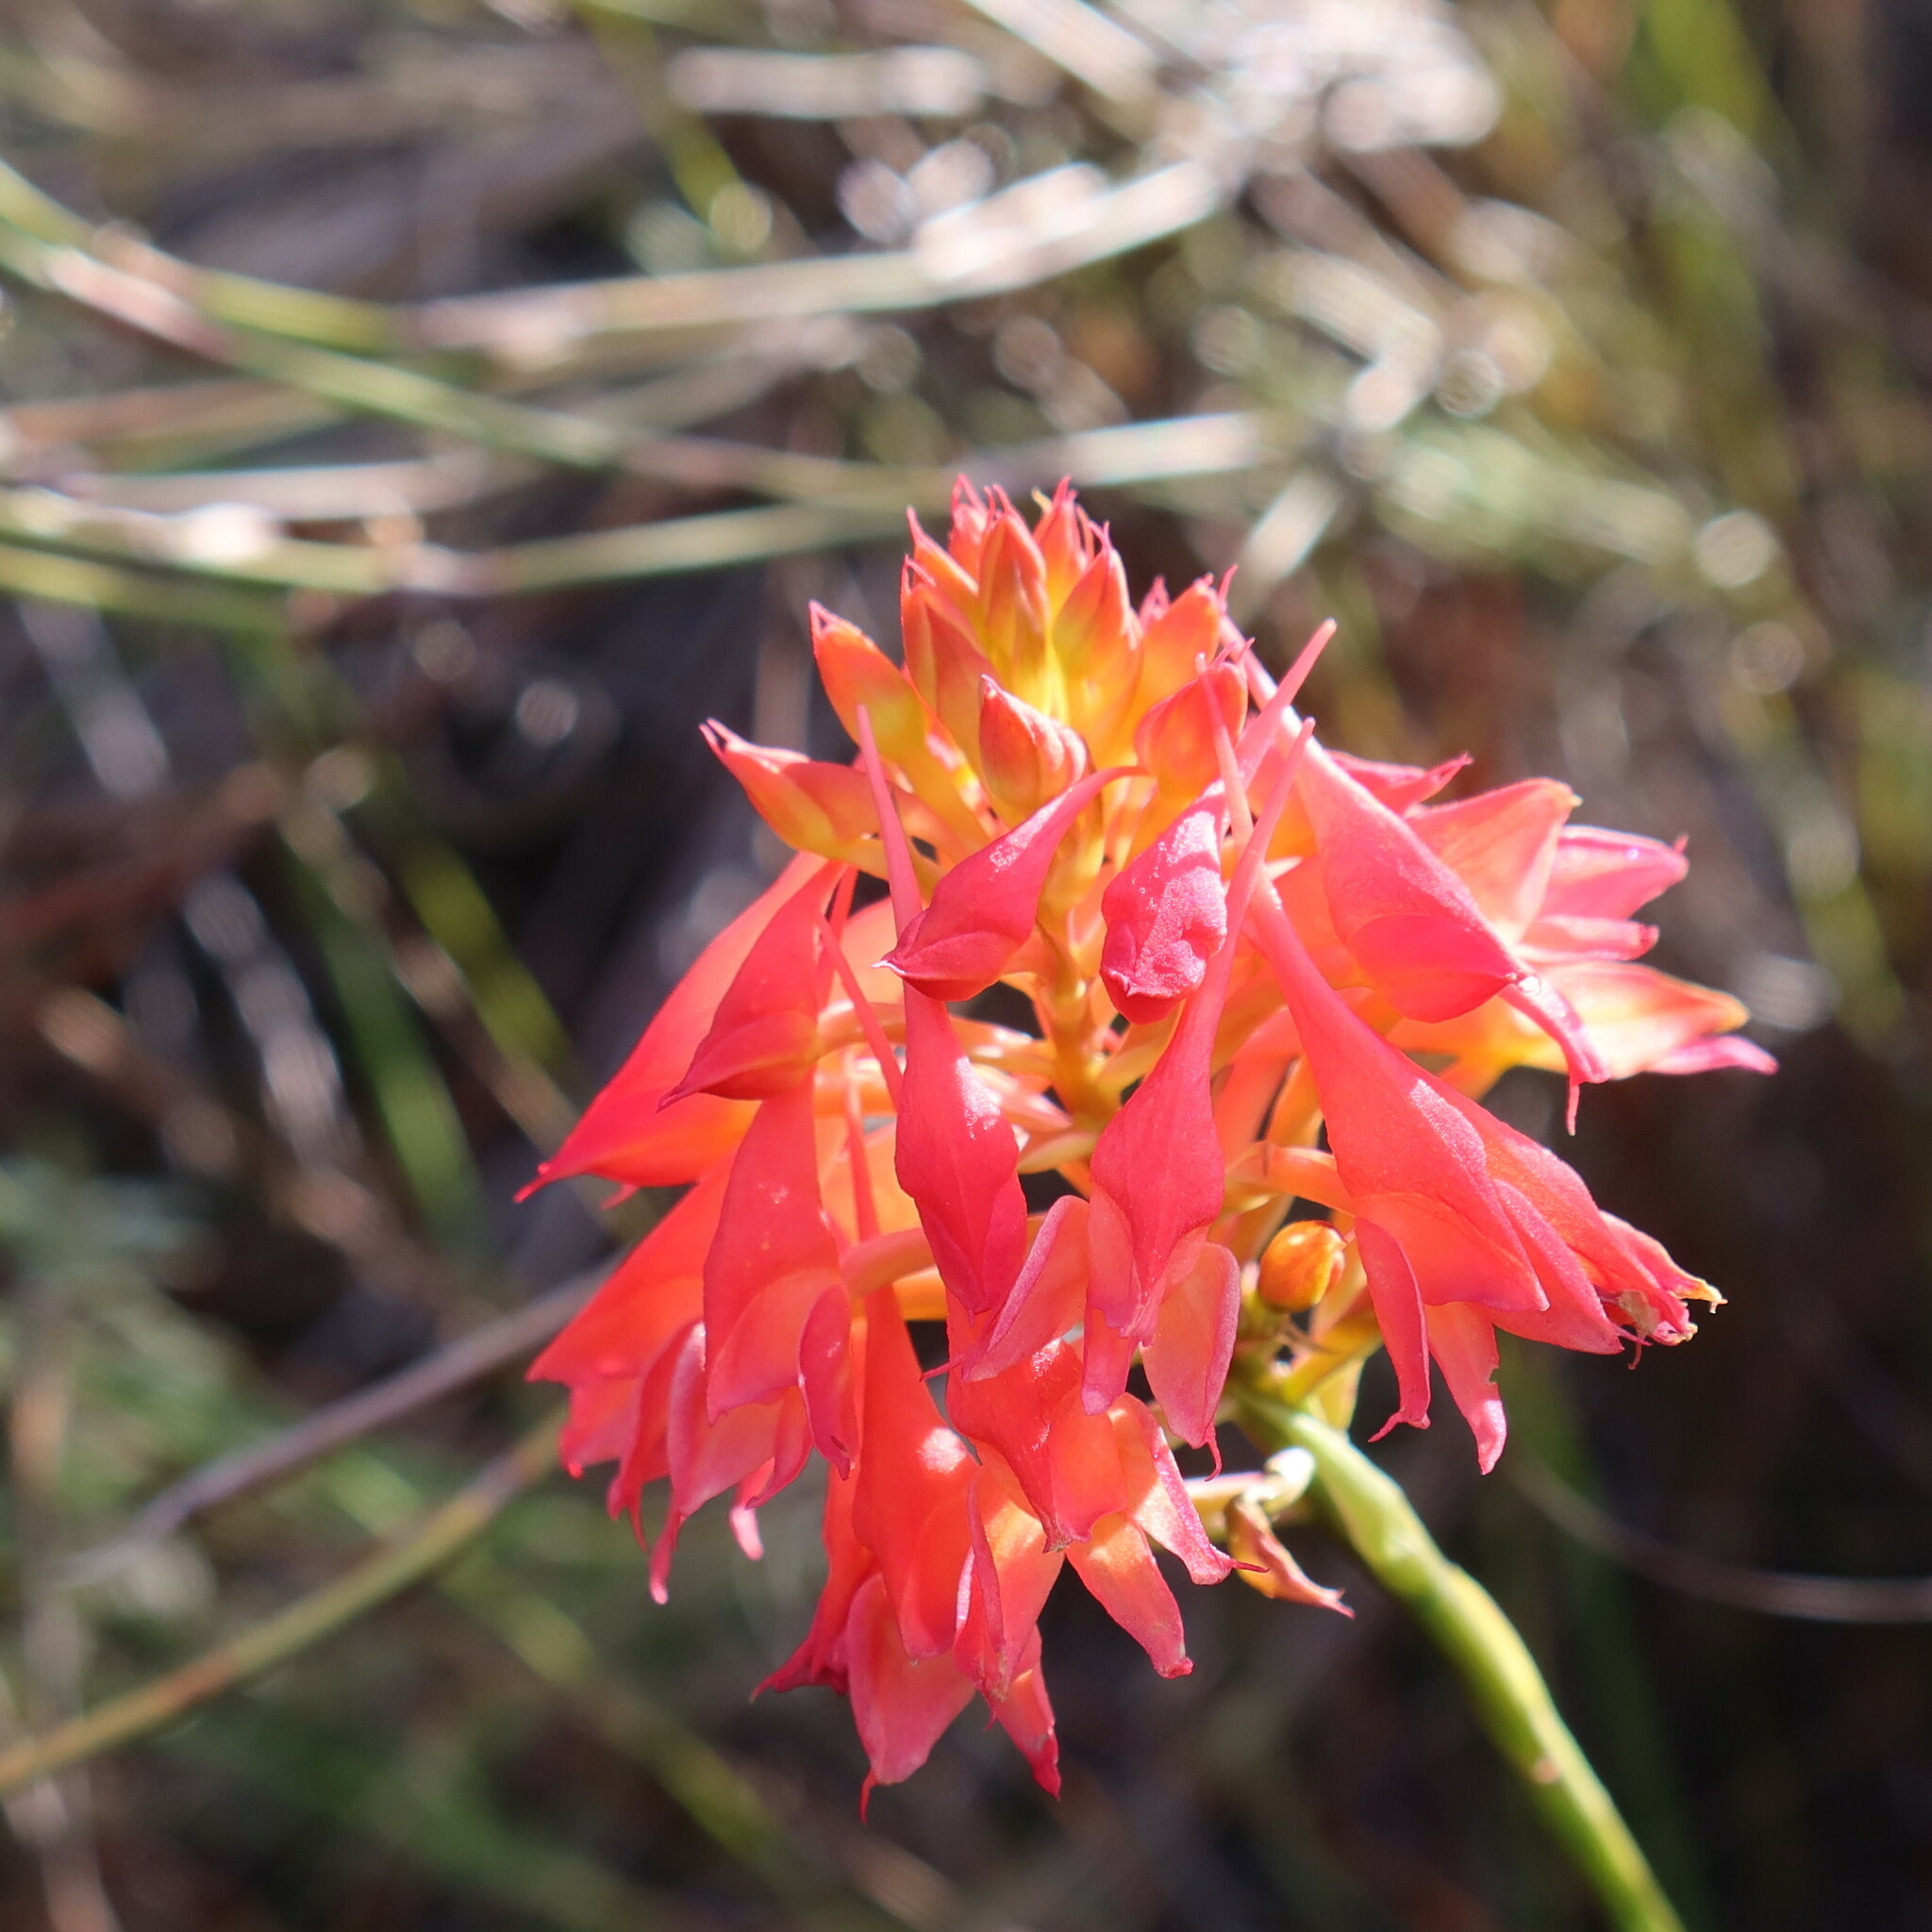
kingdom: Plantae
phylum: Tracheophyta
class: Liliopsida
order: Asparagales
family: Orchidaceae
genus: Disa
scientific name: Disa ferruginea
